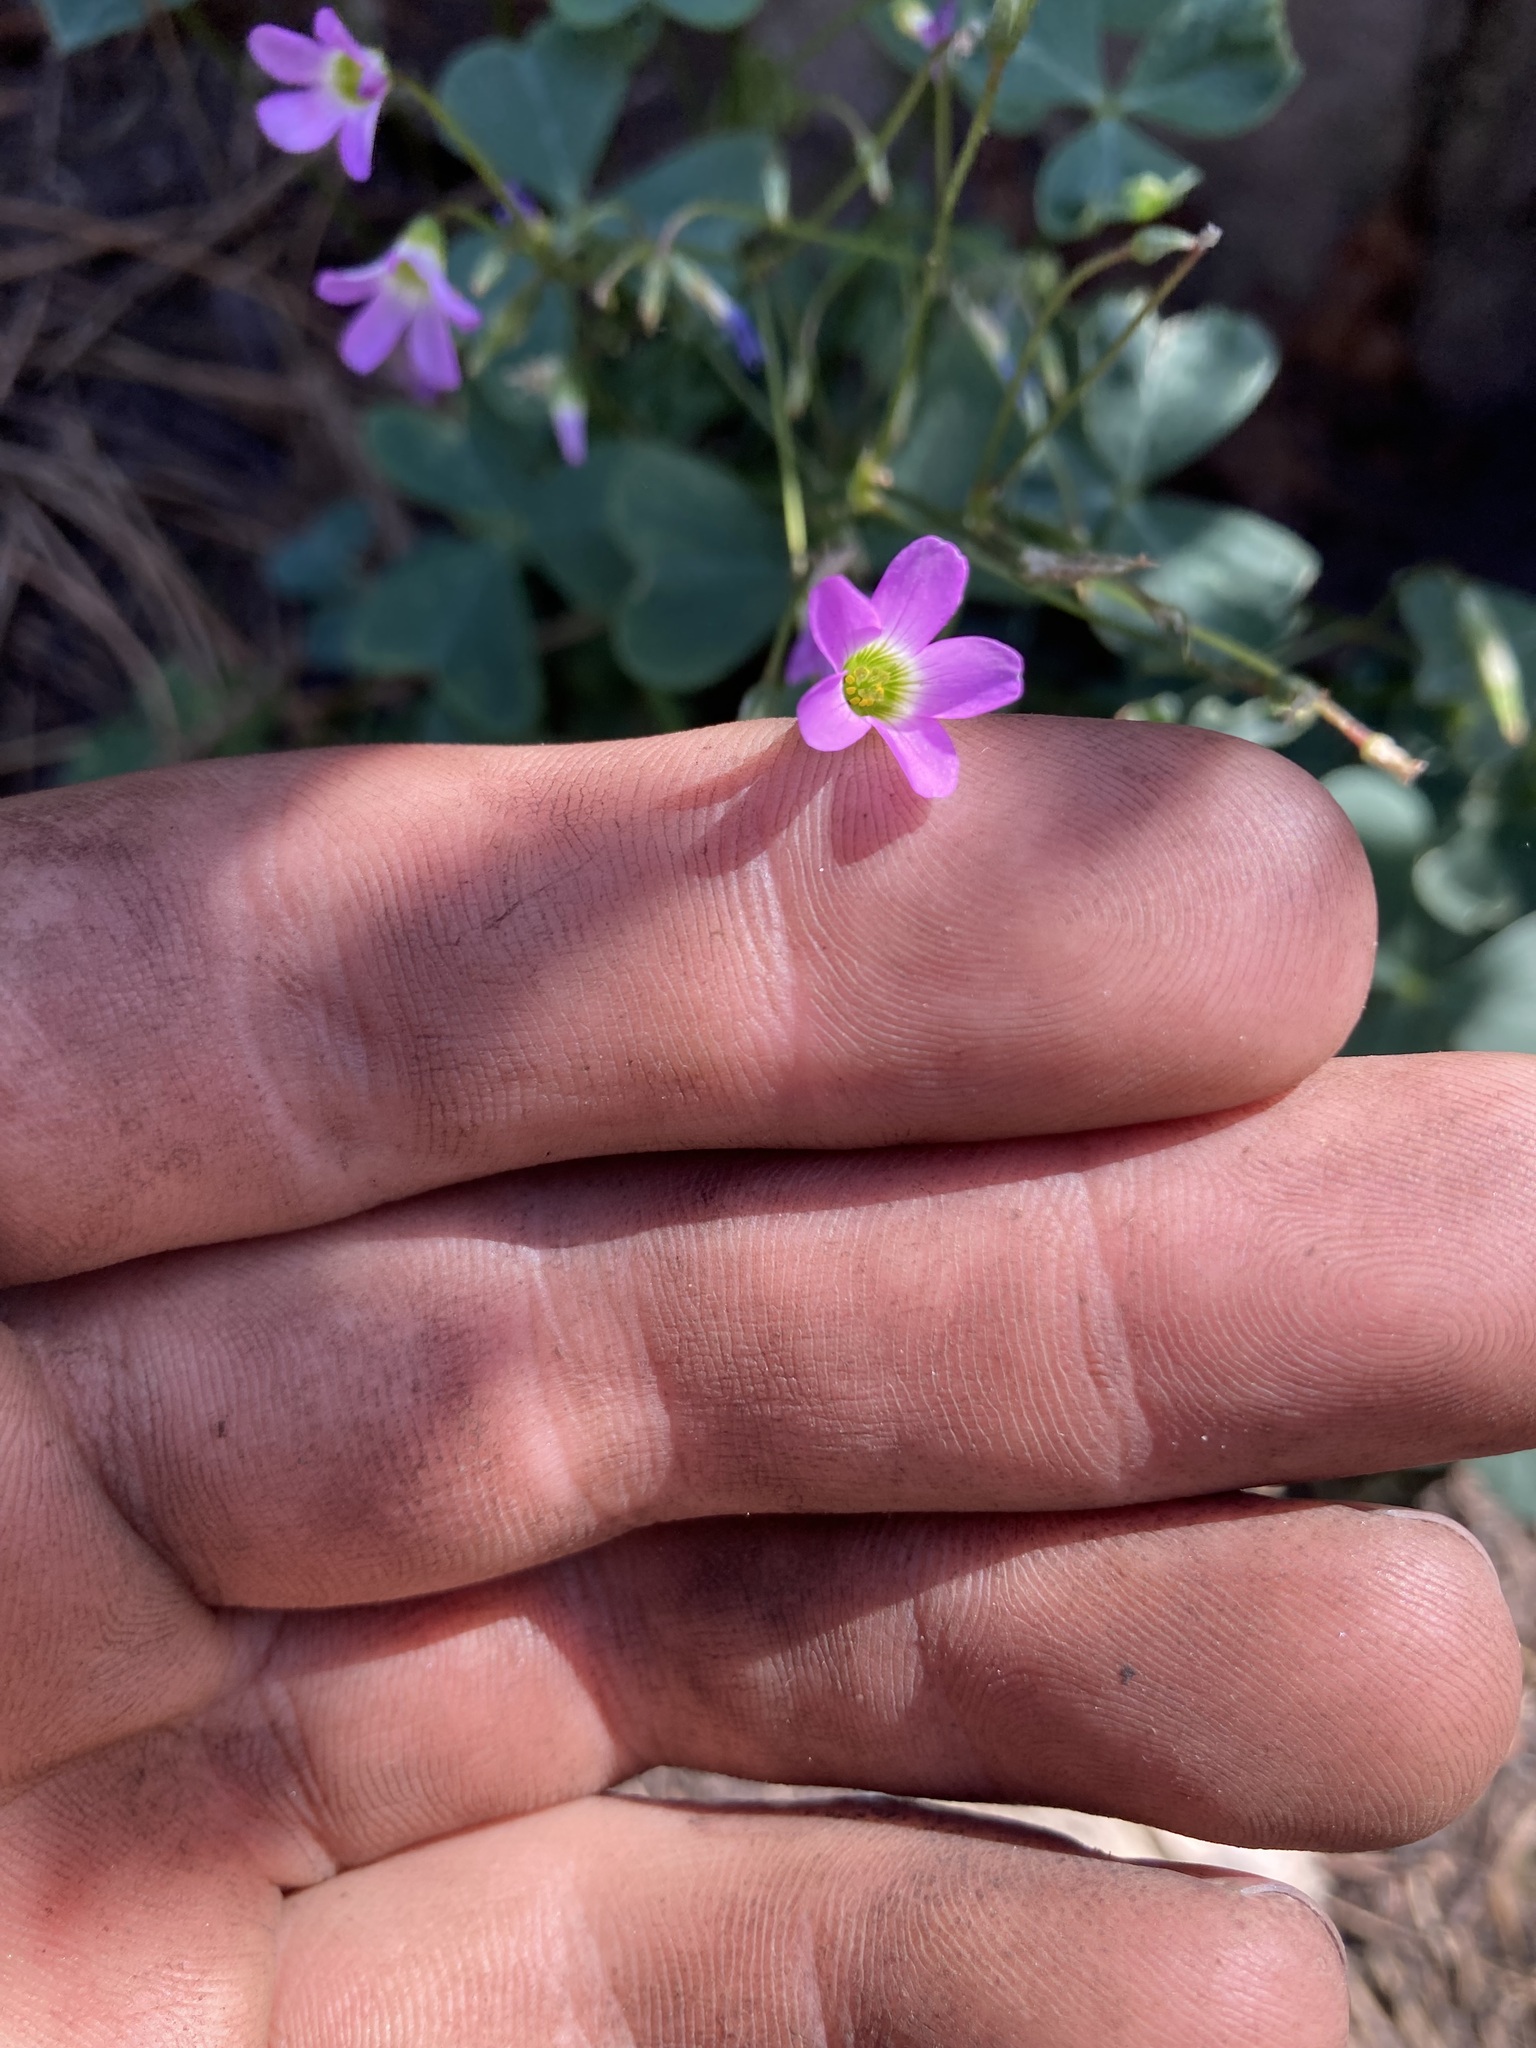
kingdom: Plantae
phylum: Tracheophyta
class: Magnoliopsida
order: Oxalidales
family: Oxalidaceae
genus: Oxalis
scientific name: Oxalis metcalfei
